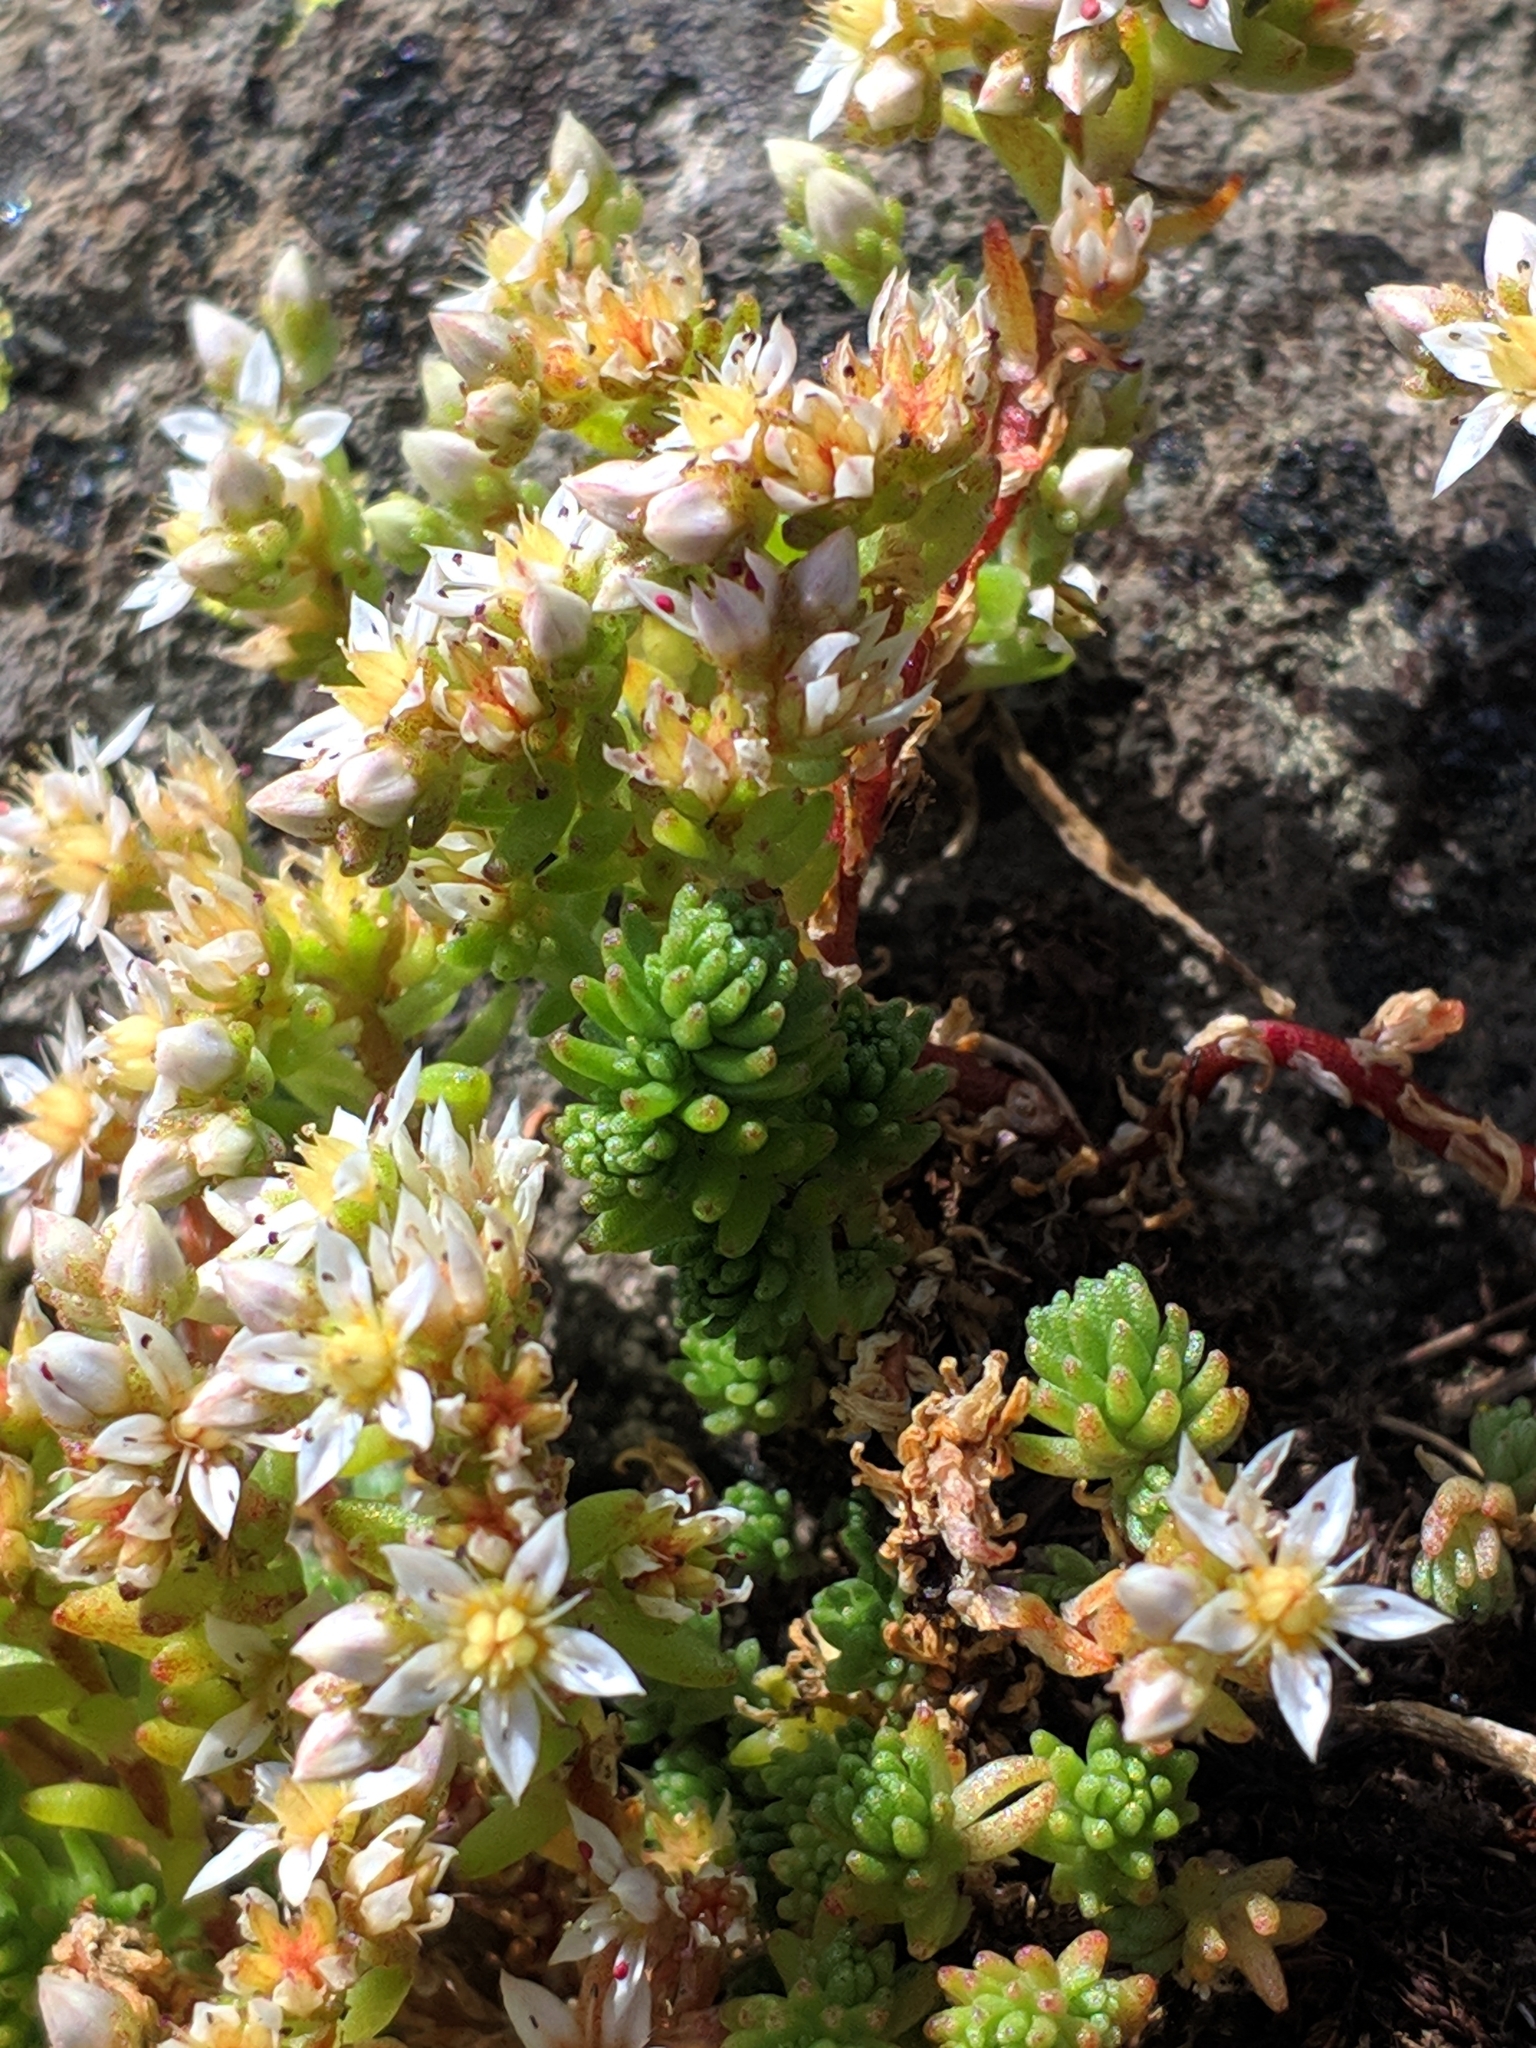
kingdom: Plantae
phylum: Tracheophyta
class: Magnoliopsida
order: Saxifragales
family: Crassulaceae
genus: Sedum
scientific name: Sedum gracile
